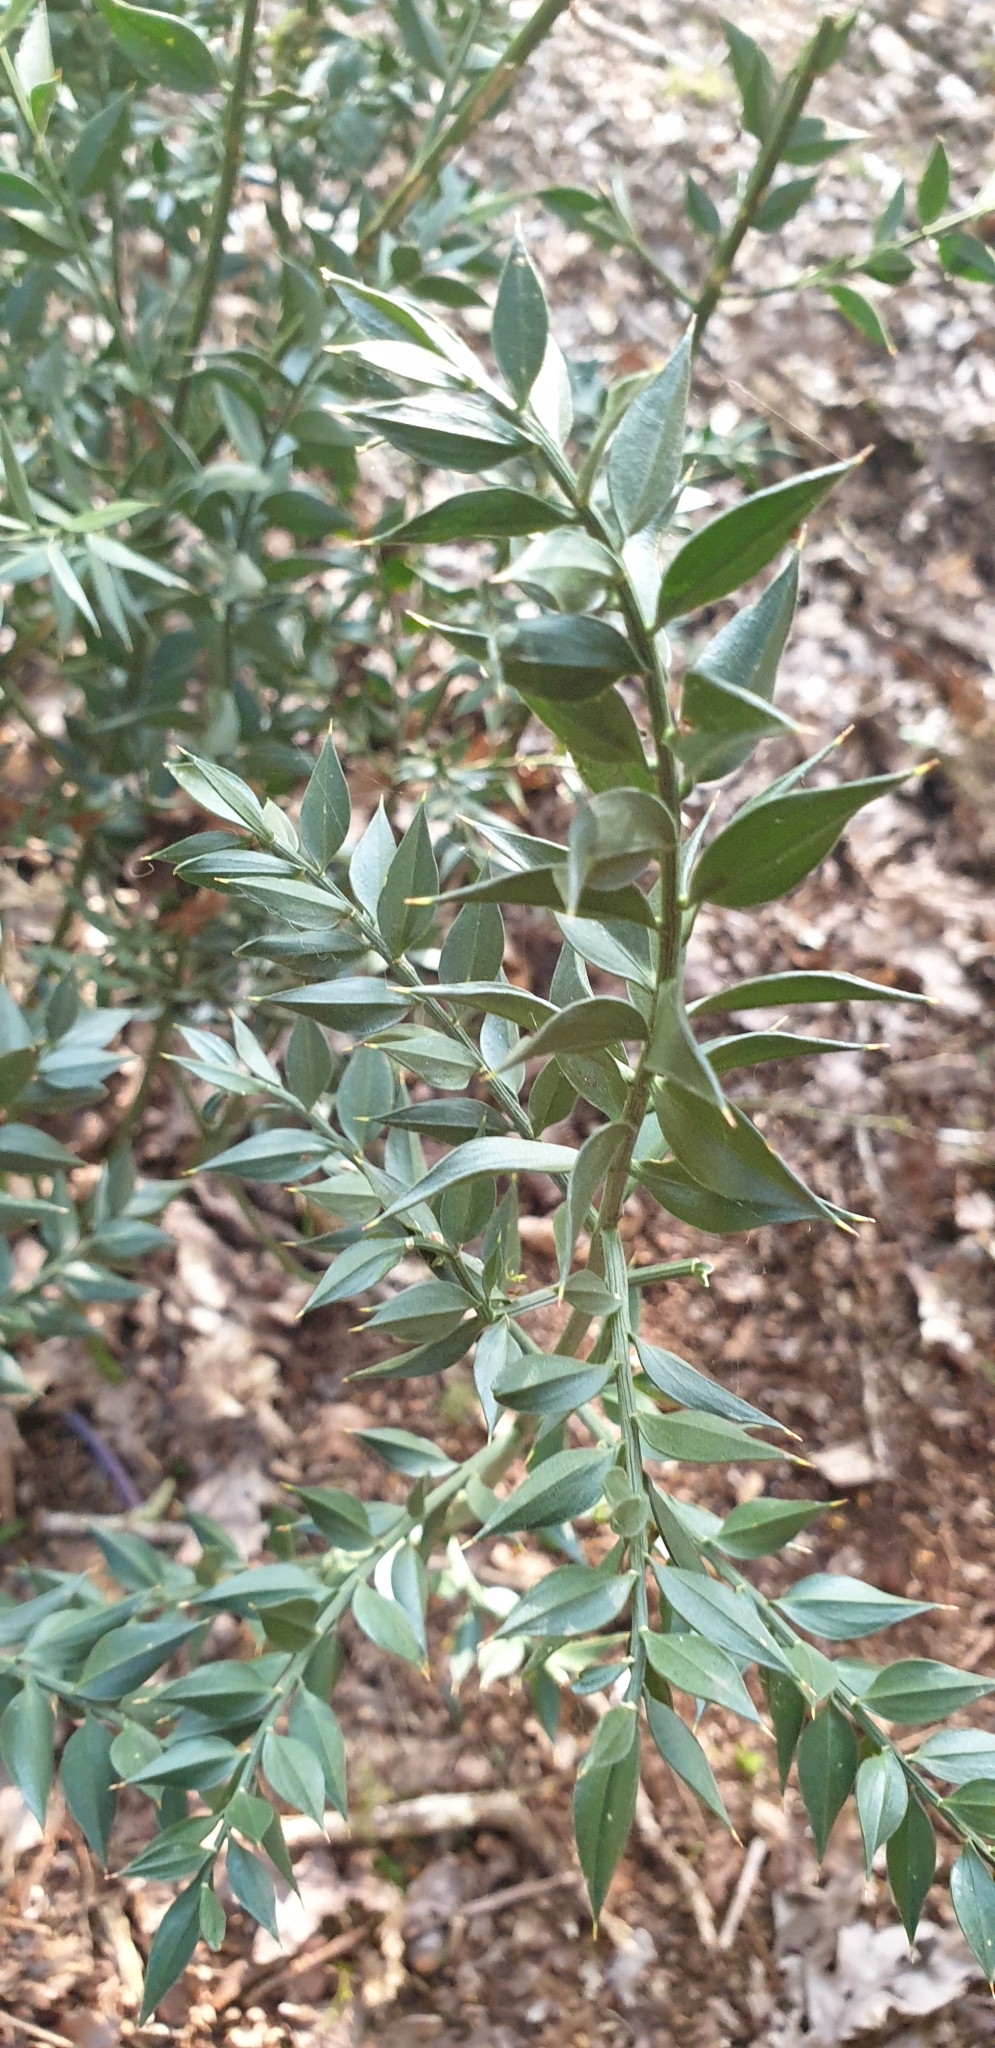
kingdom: Plantae
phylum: Tracheophyta
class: Liliopsida
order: Asparagales
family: Asparagaceae
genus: Ruscus
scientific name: Ruscus aculeatus
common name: Butcher's-broom
